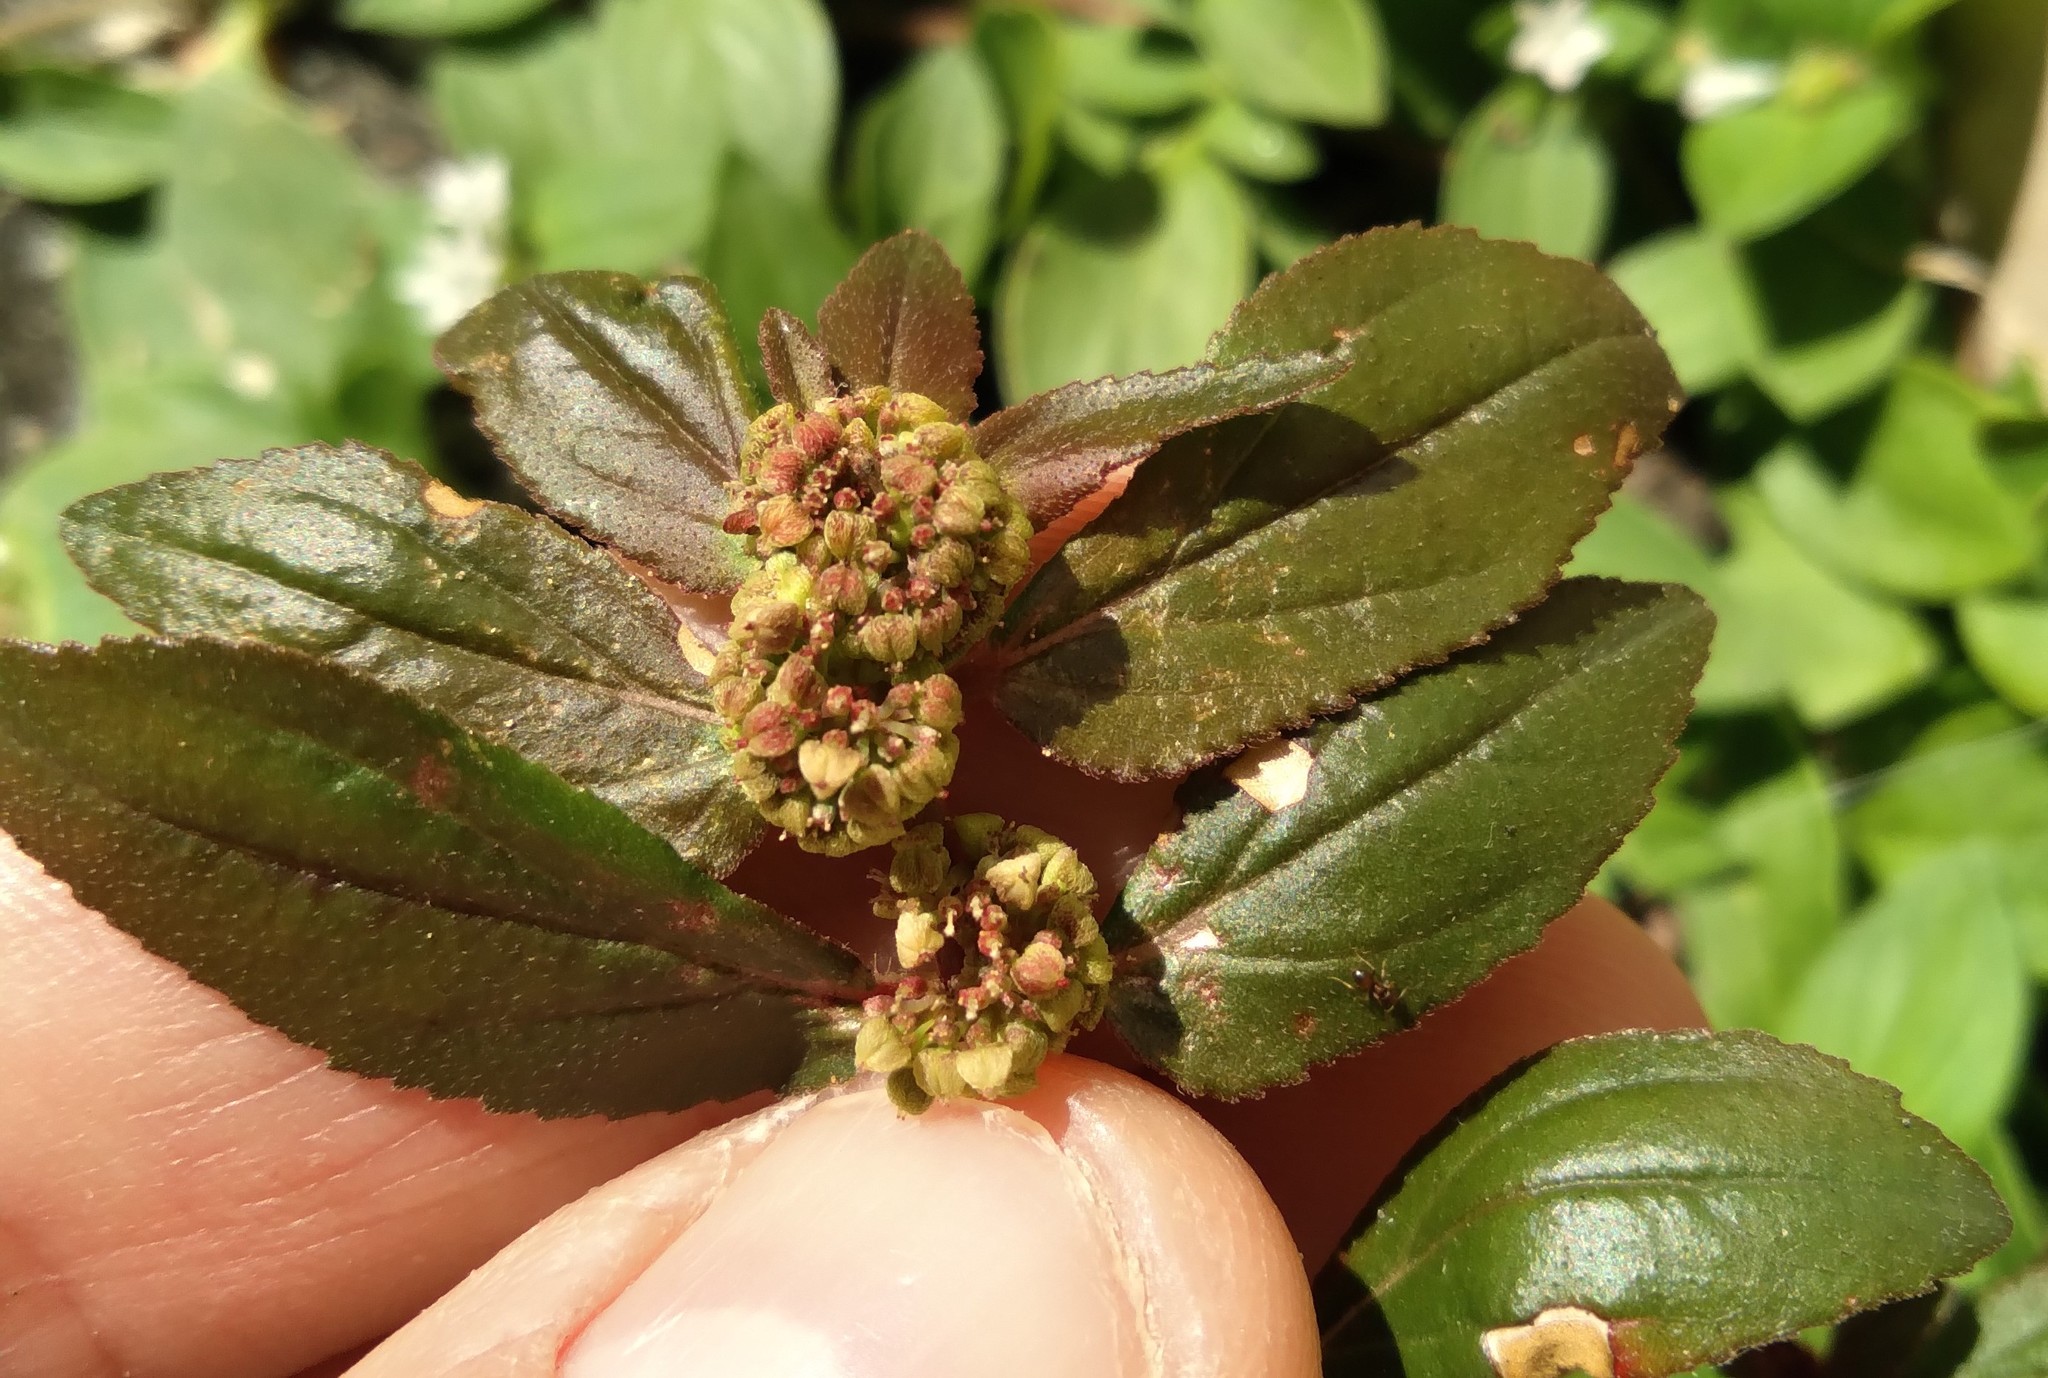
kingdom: Plantae
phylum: Tracheophyta
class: Magnoliopsida
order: Malpighiales
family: Euphorbiaceae
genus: Euphorbia
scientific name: Euphorbia hirta
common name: Pillpod sandmat
